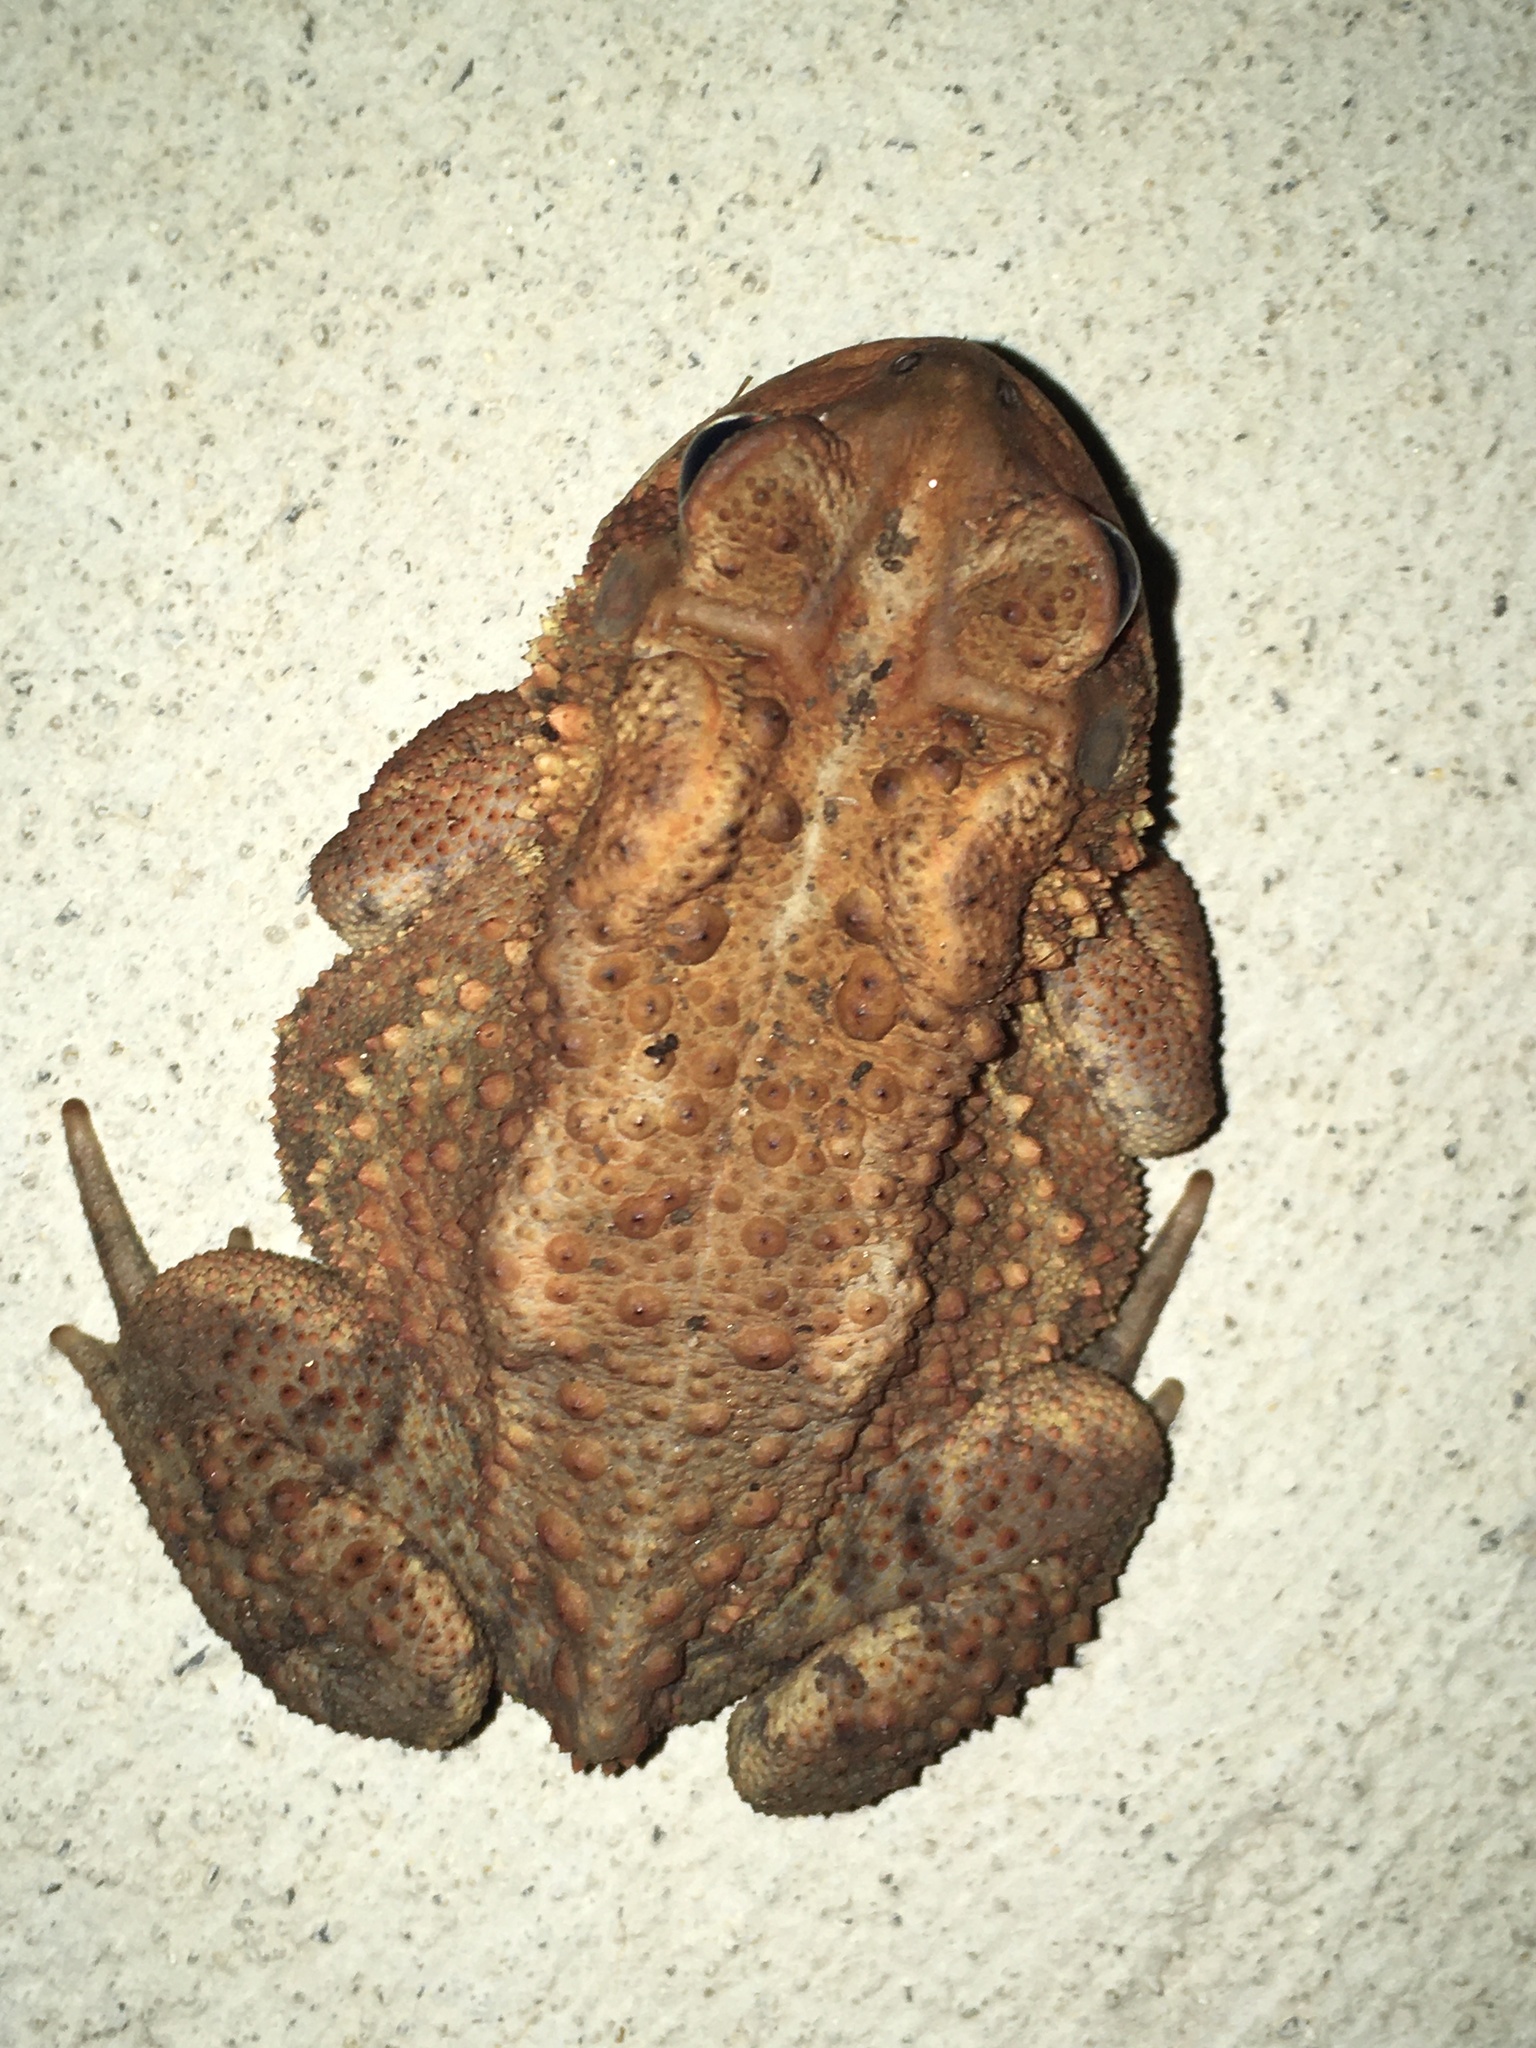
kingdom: Animalia
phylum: Chordata
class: Amphibia
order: Anura
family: Bufonidae
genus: Anaxyrus
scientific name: Anaxyrus americanus
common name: American toad
